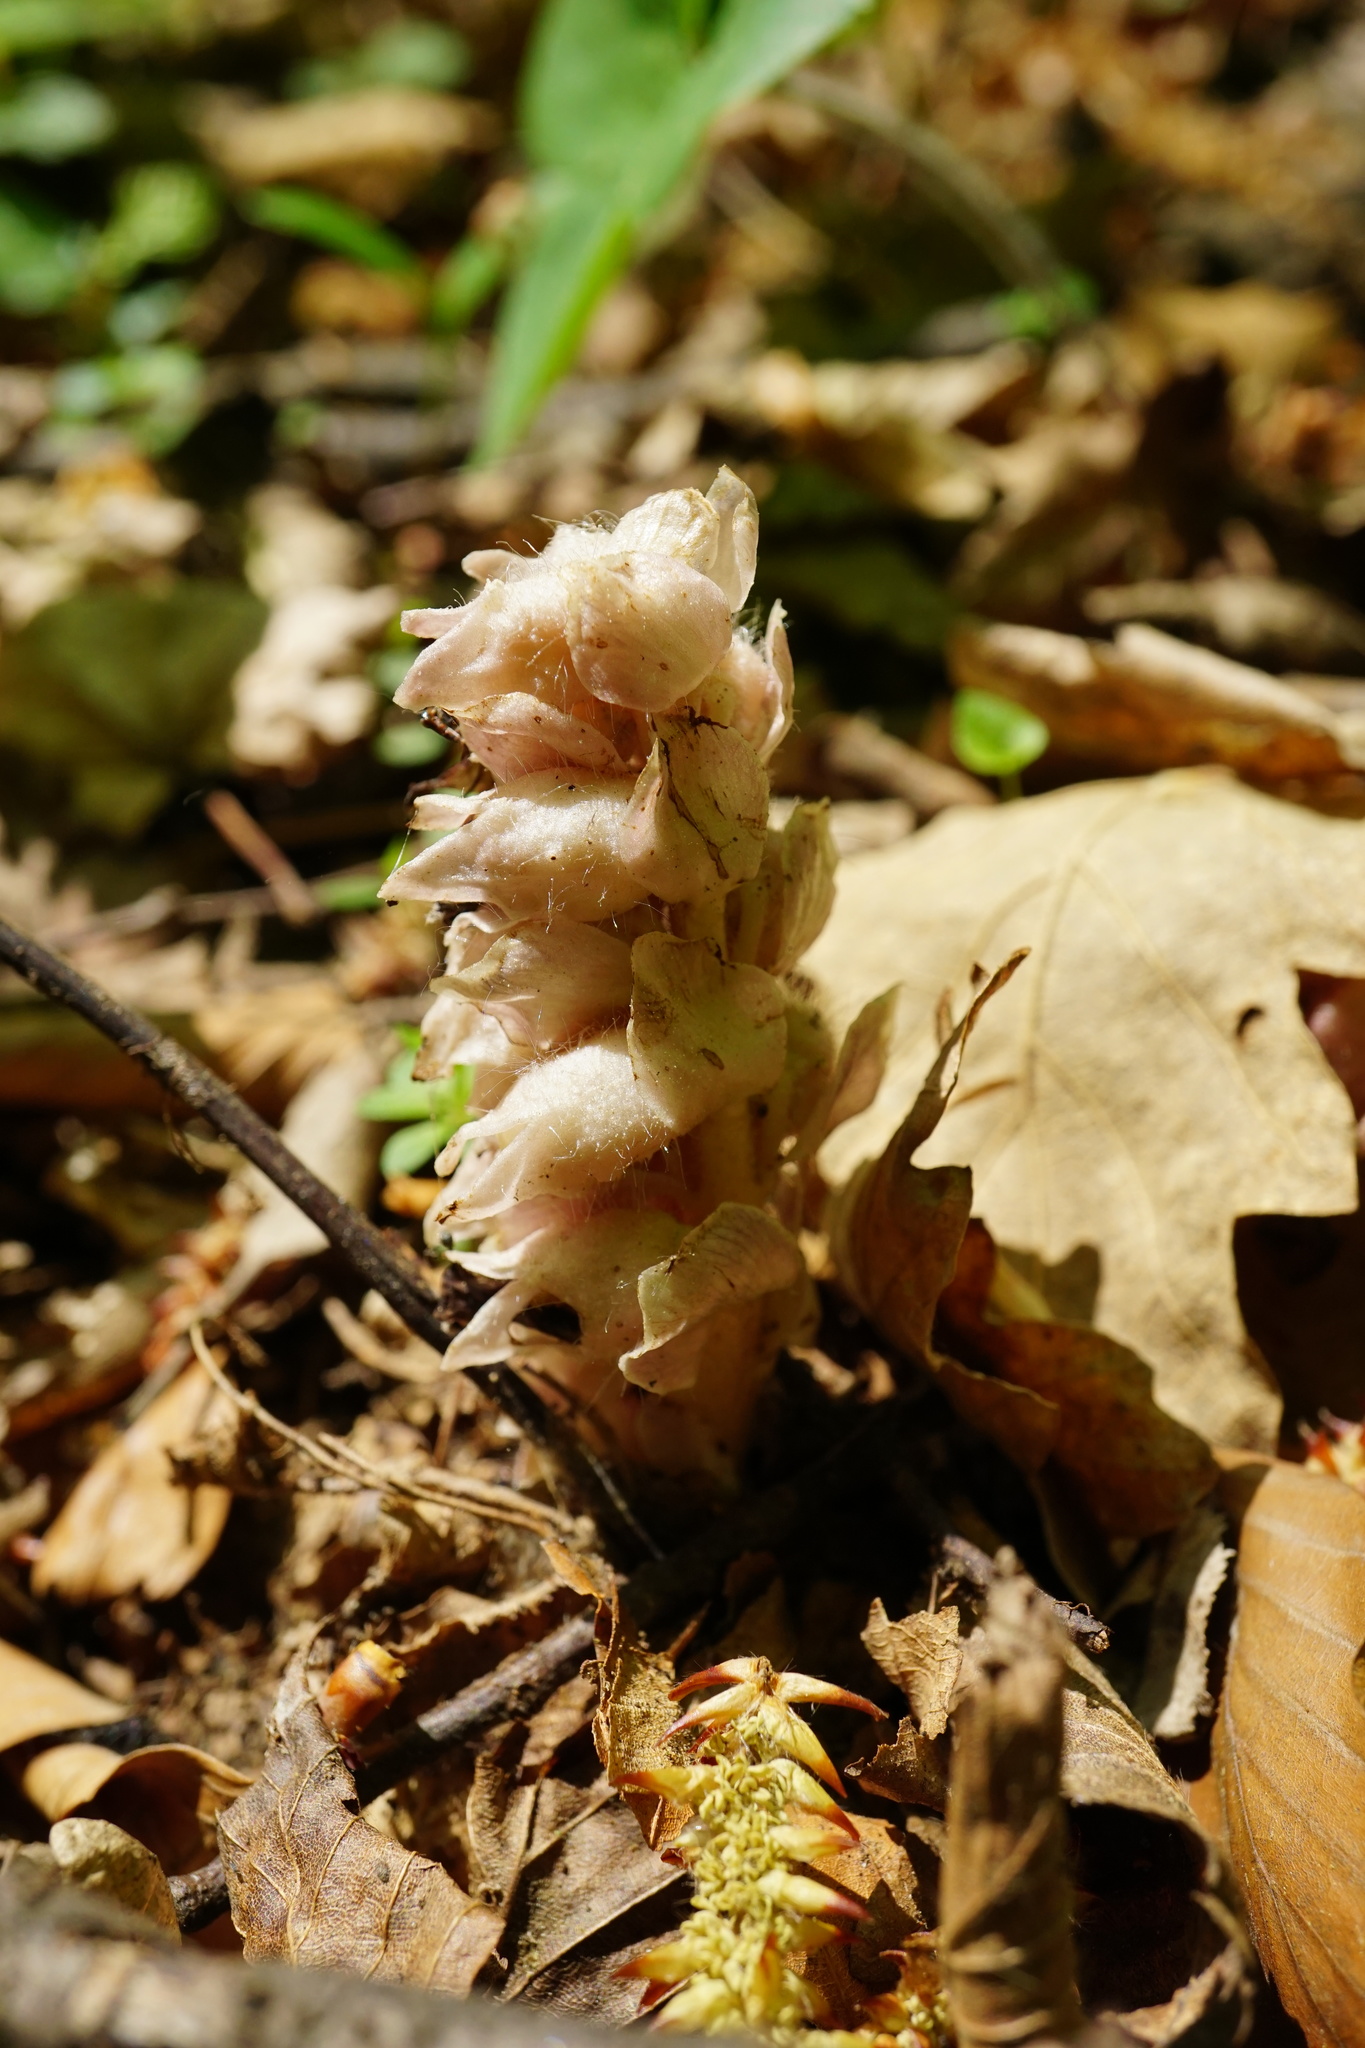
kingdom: Plantae
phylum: Tracheophyta
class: Magnoliopsida
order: Lamiales
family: Orobanchaceae
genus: Lathraea
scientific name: Lathraea squamaria
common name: Toothwort
